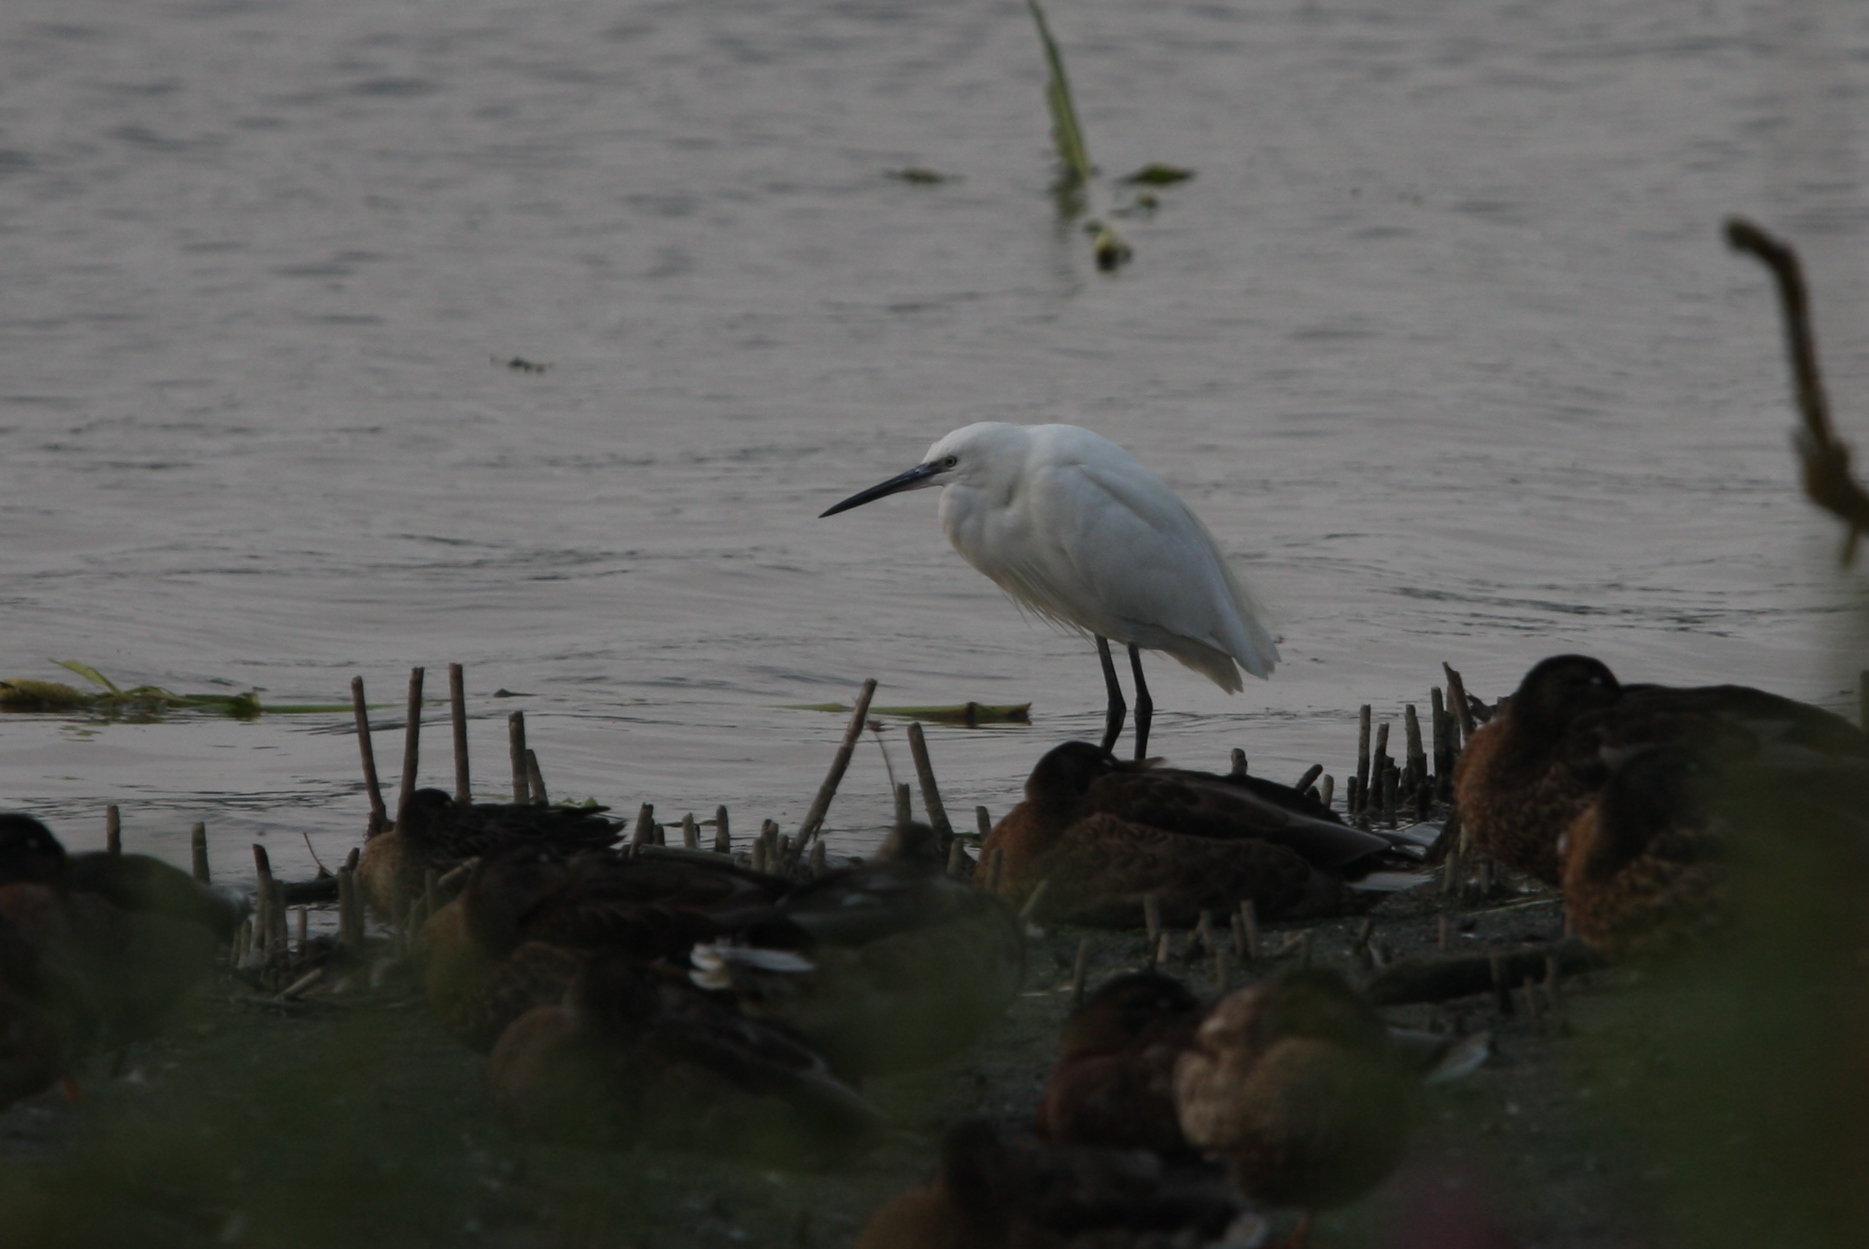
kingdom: Animalia
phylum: Chordata
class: Aves
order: Pelecaniformes
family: Ardeidae
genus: Egretta
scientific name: Egretta garzetta
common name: Little egret
